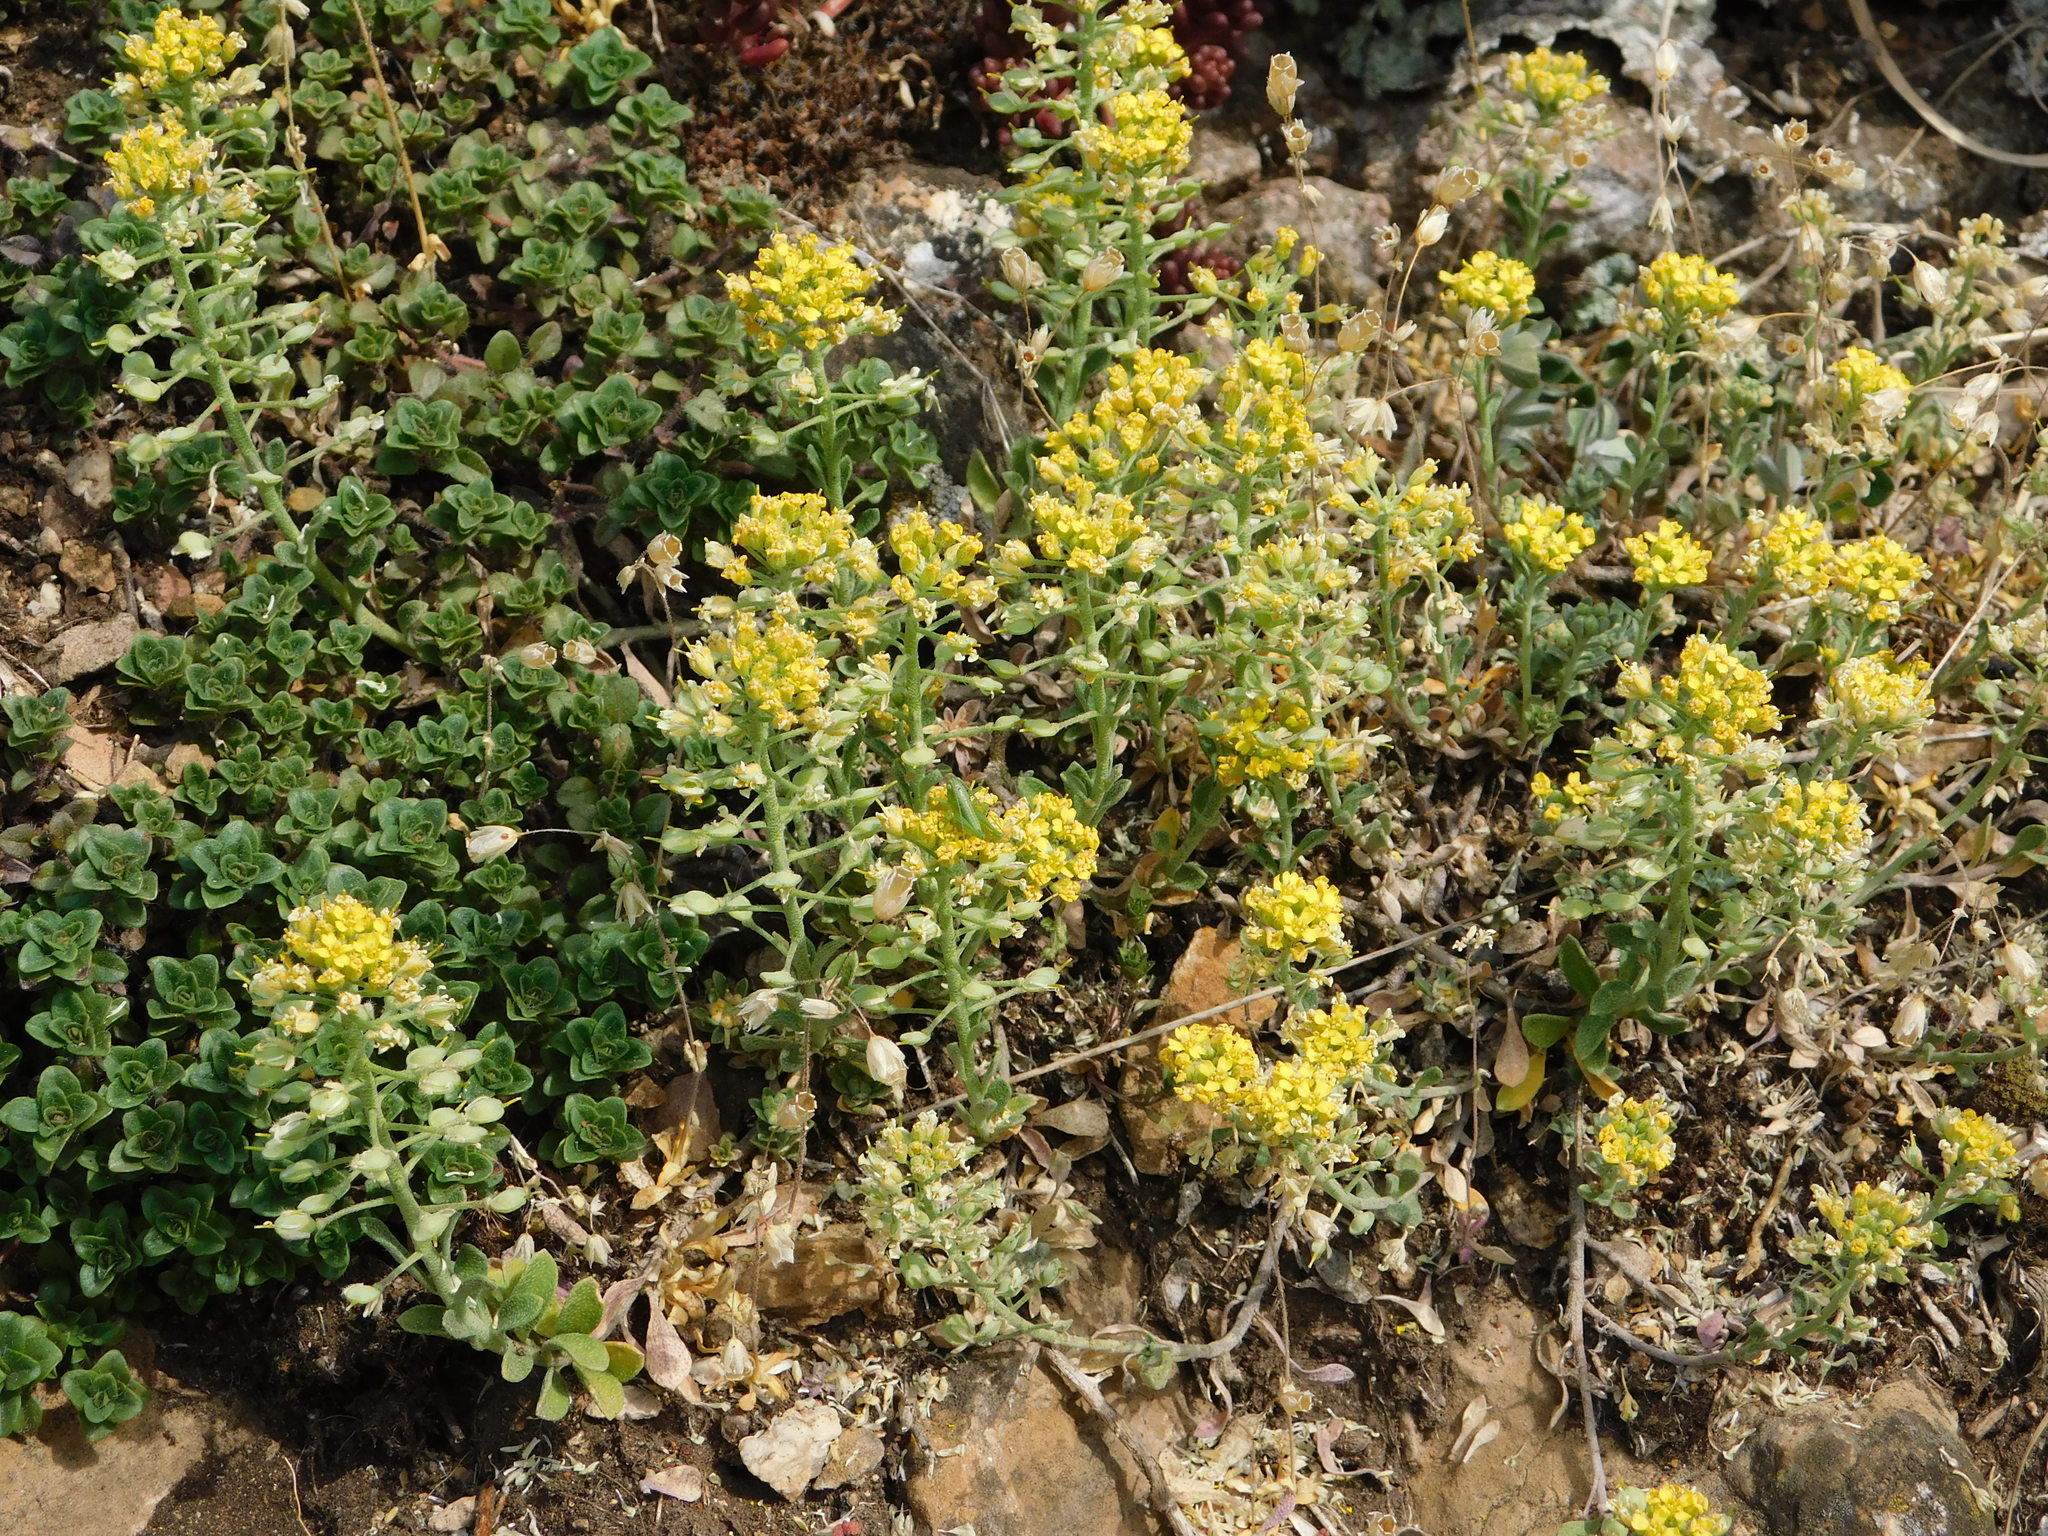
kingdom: Plantae
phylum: Tracheophyta
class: Magnoliopsida
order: Brassicales
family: Brassicaceae
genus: Alyssum
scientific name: Alyssum gmelinii
